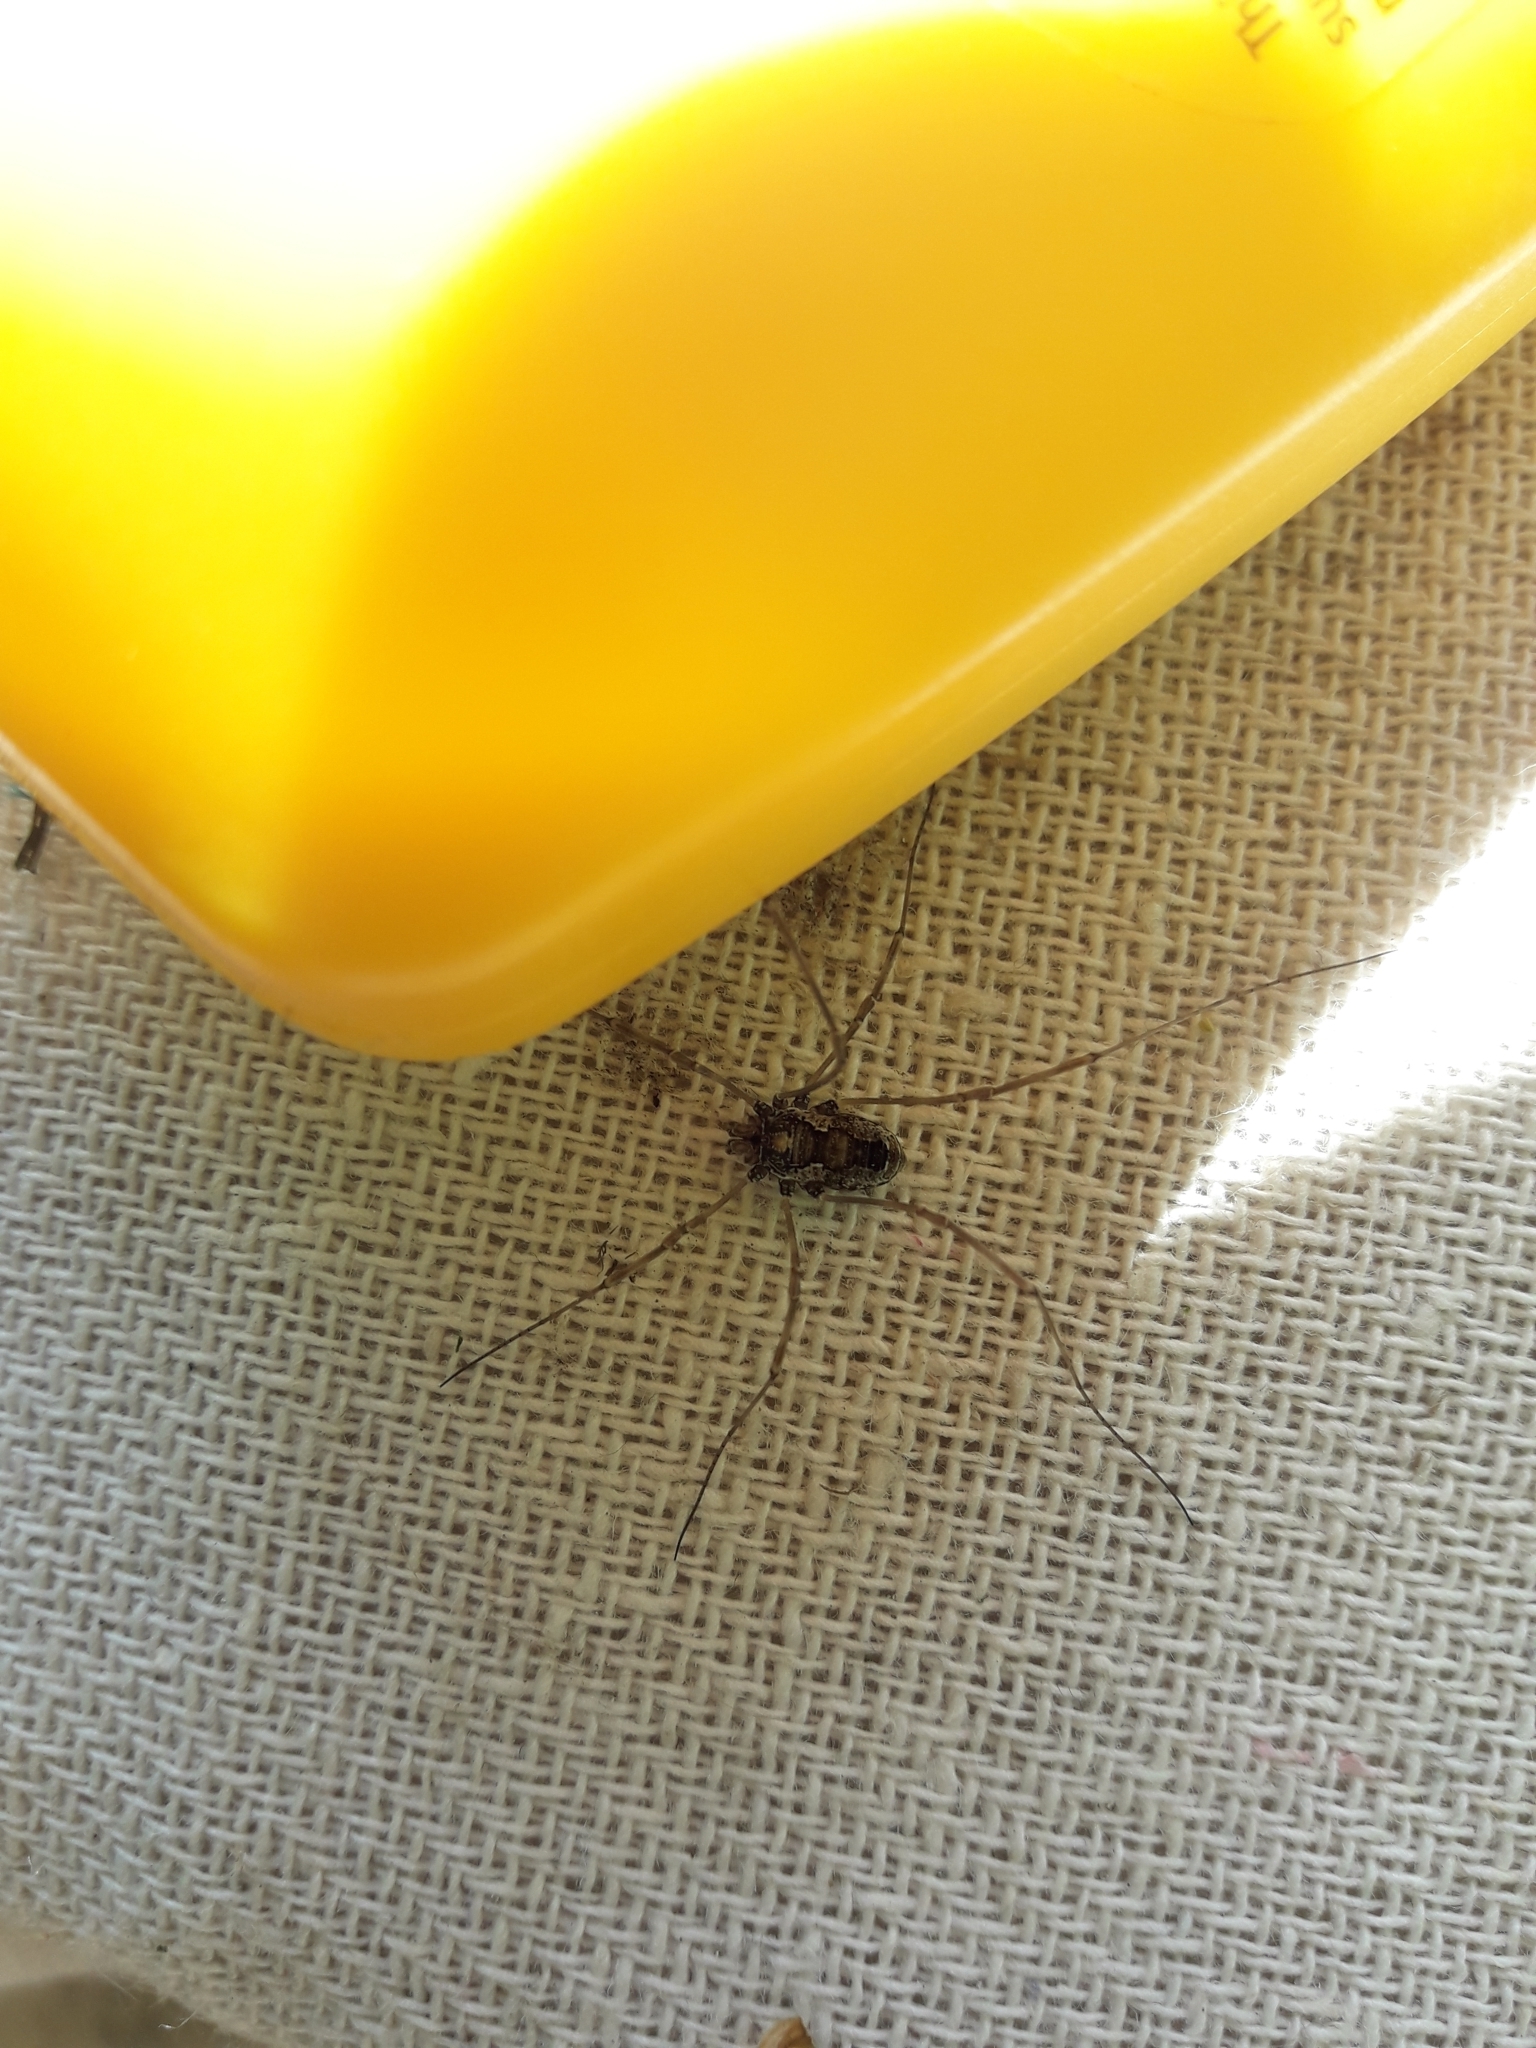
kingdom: Animalia
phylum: Arthropoda
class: Arachnida
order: Opiliones
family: Phalangiidae
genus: Platybunus
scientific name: Platybunus pinetorum
